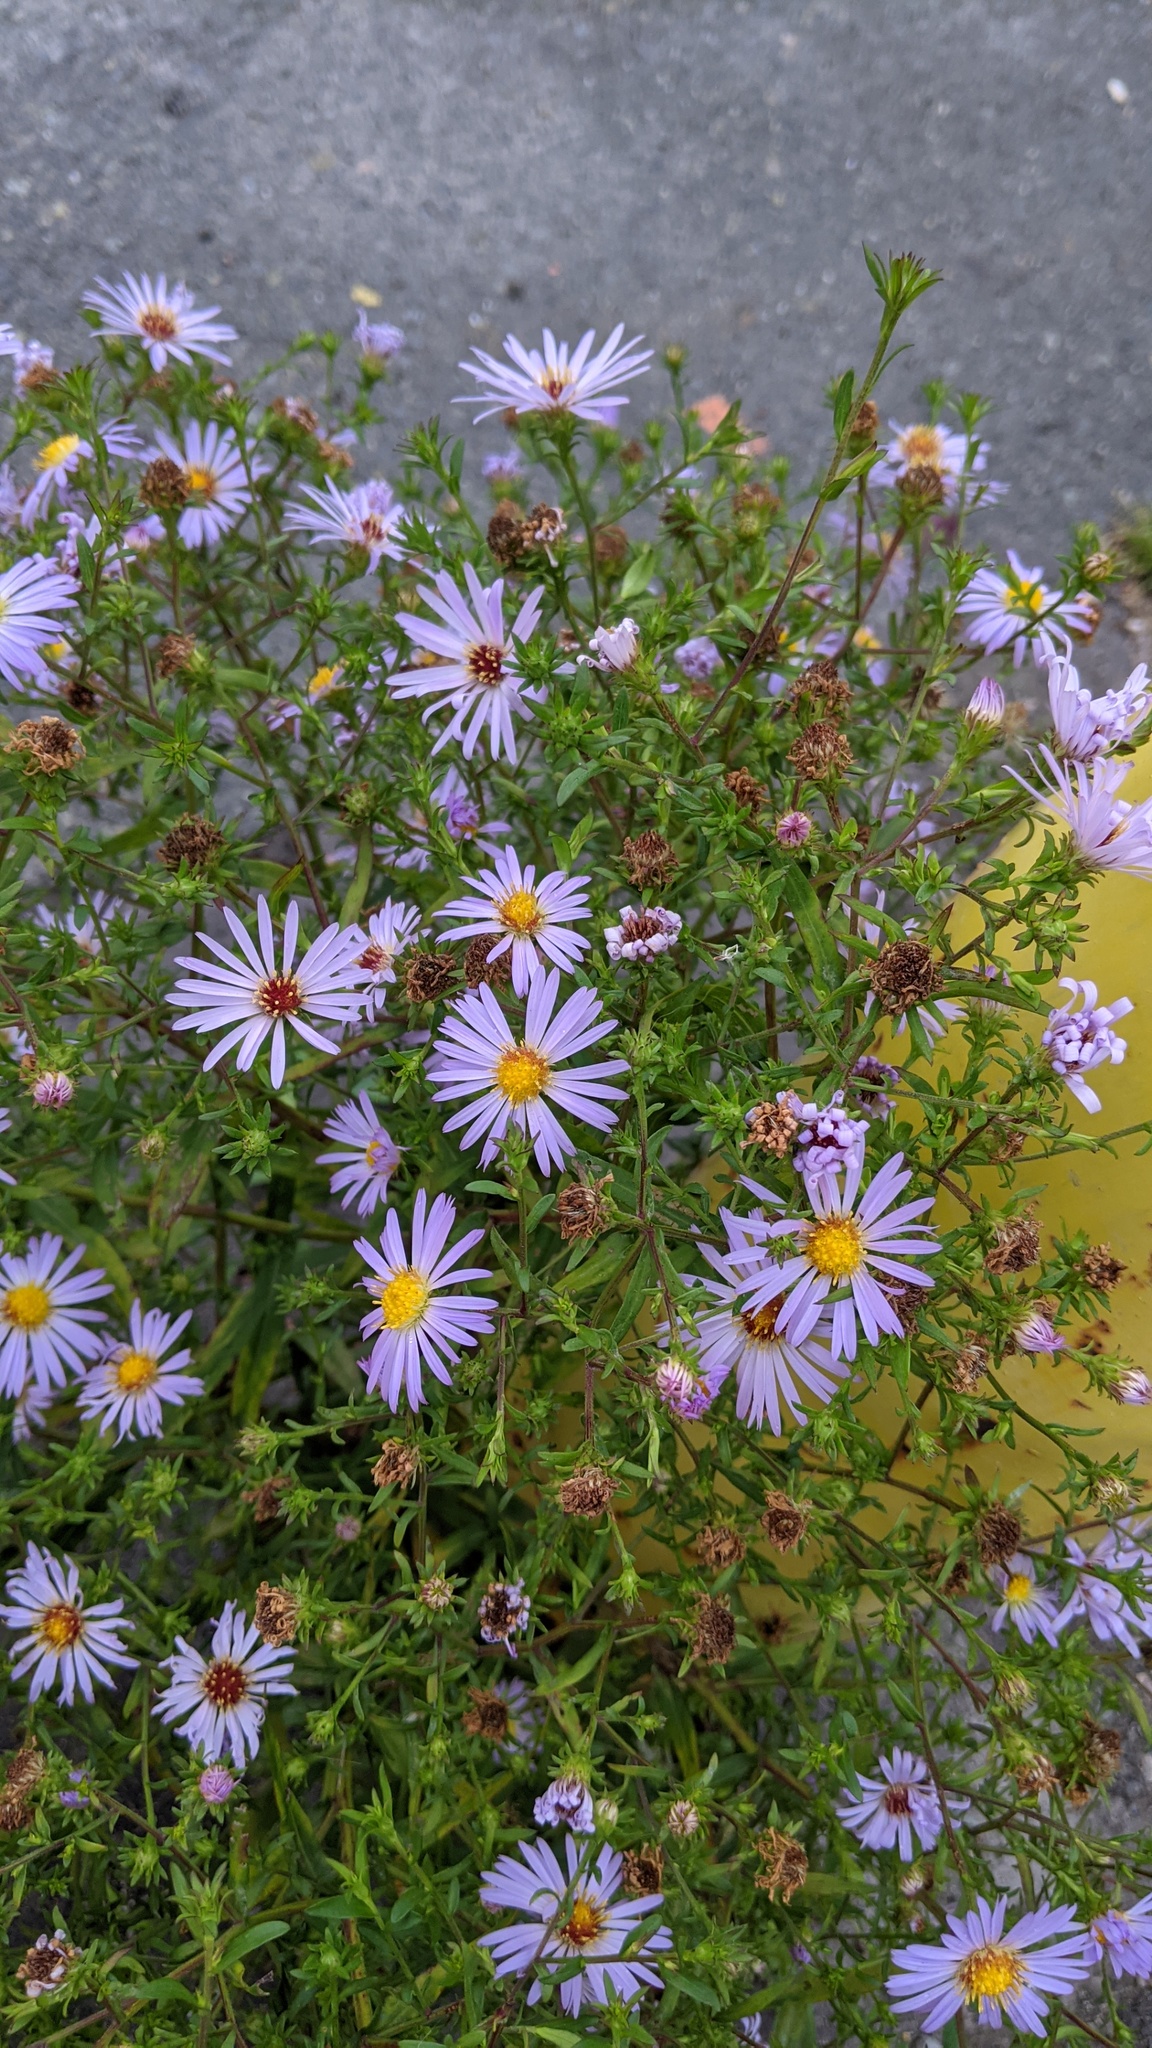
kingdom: Plantae
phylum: Tracheophyta
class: Magnoliopsida
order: Asterales
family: Asteraceae
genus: Symphyotrichum
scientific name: Symphyotrichum novi-belgii
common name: Michaelmas daisy
